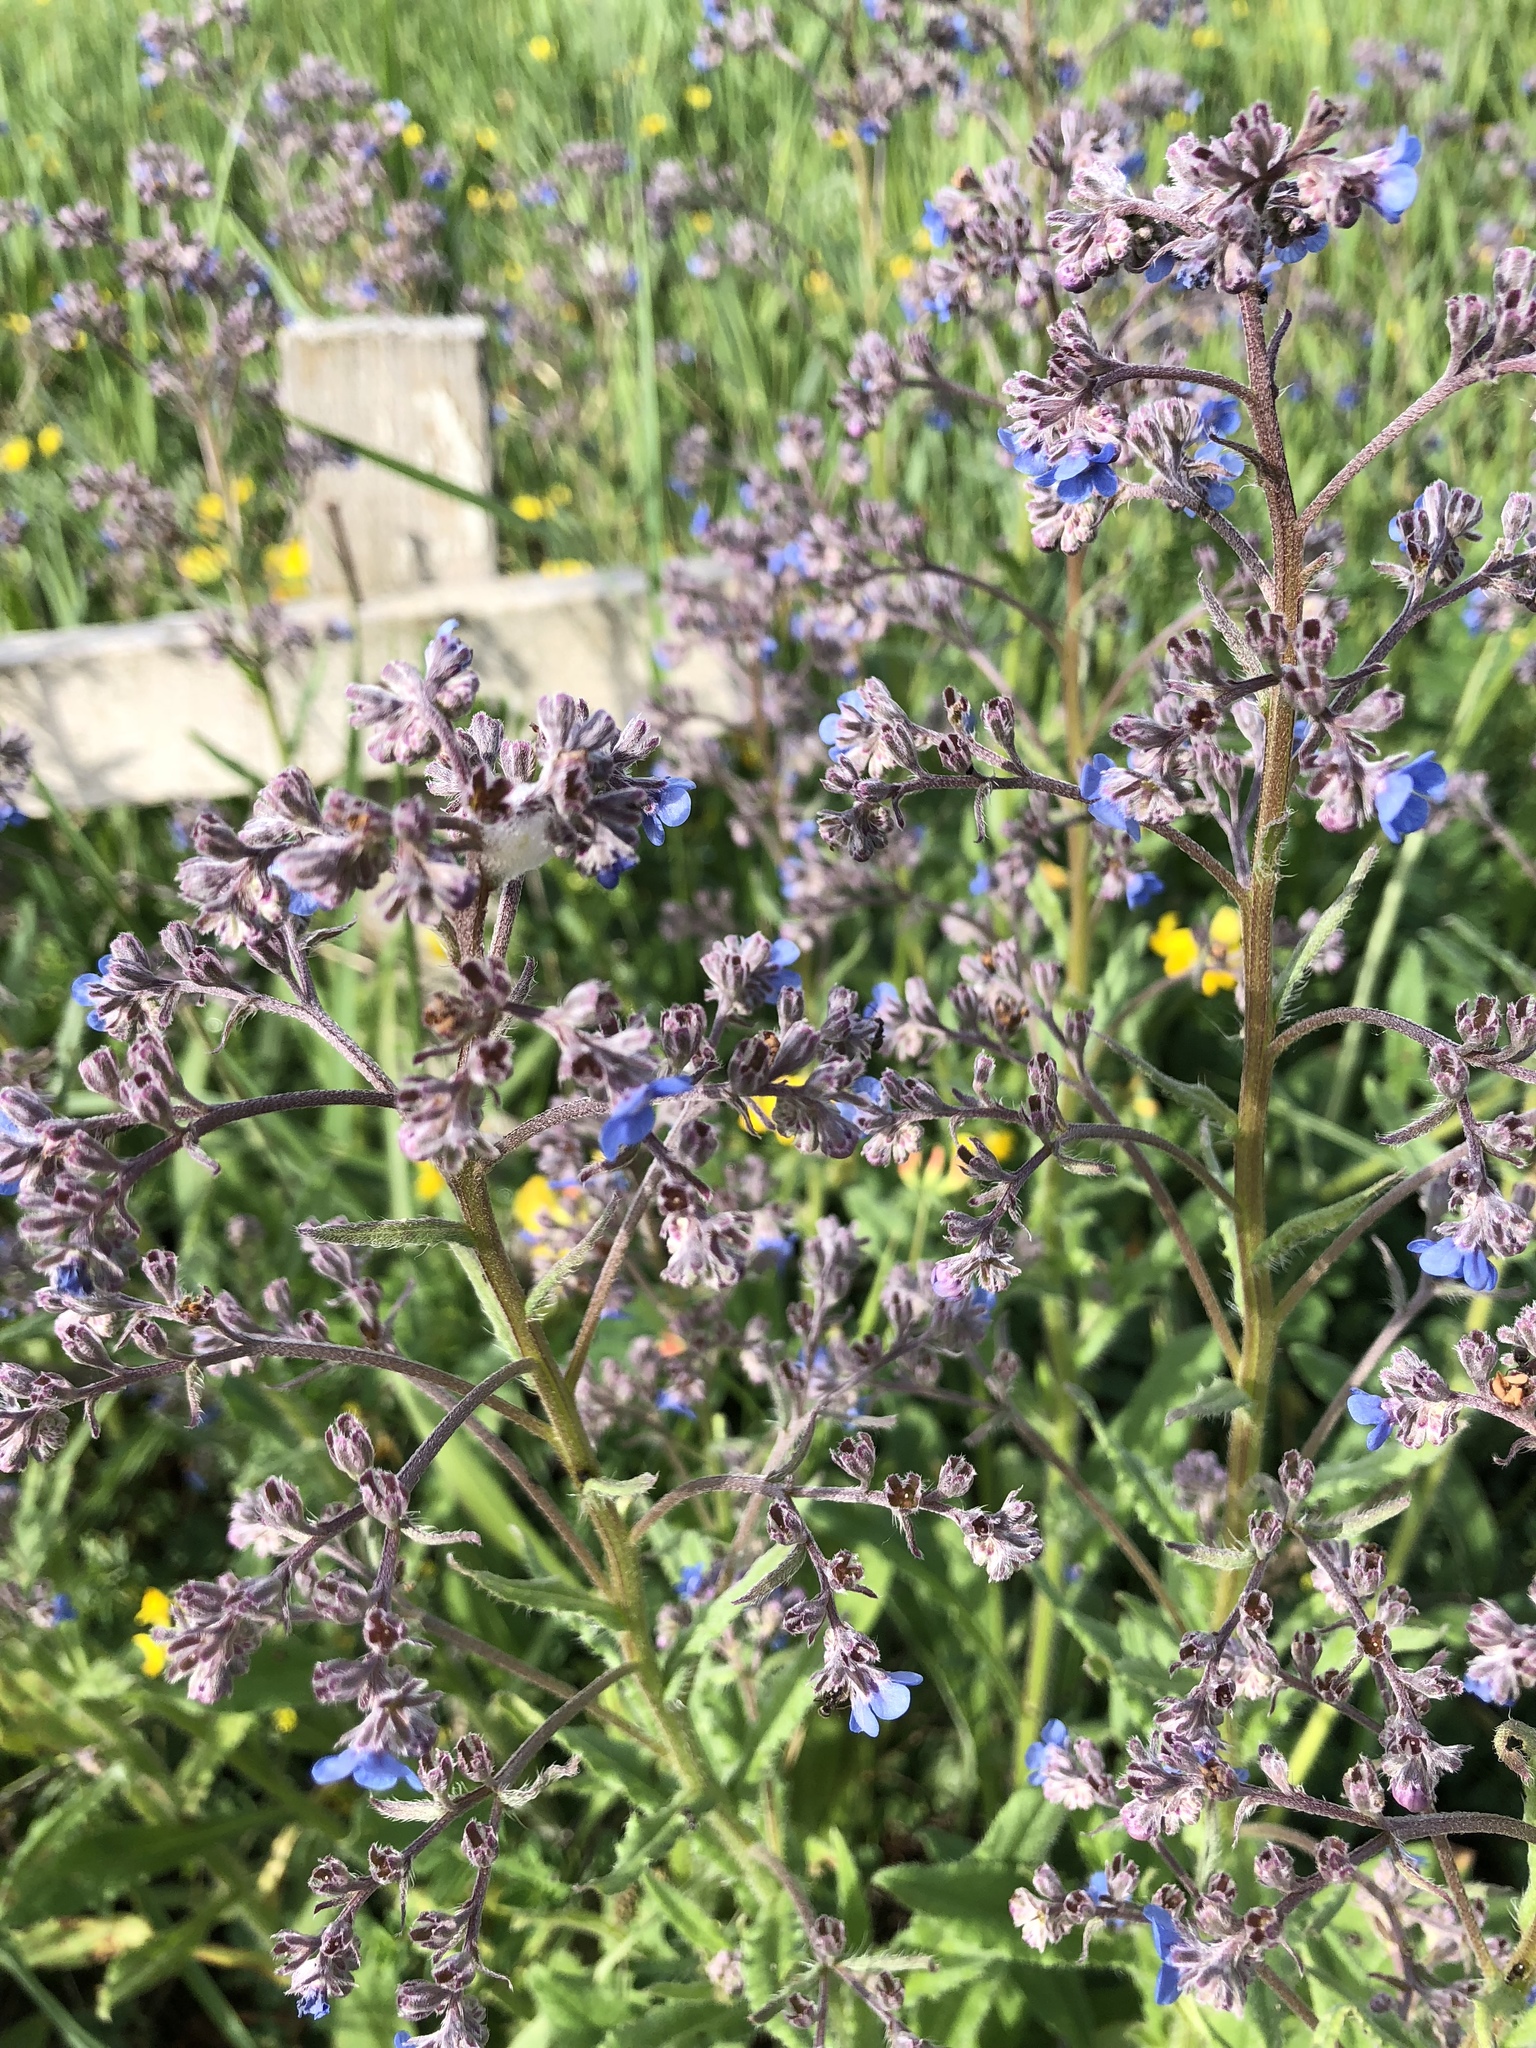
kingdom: Plantae
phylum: Tracheophyta
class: Magnoliopsida
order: Boraginales
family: Boraginaceae
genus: Cynoglottis
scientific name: Cynoglottis barrelieri
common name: False alkanet
